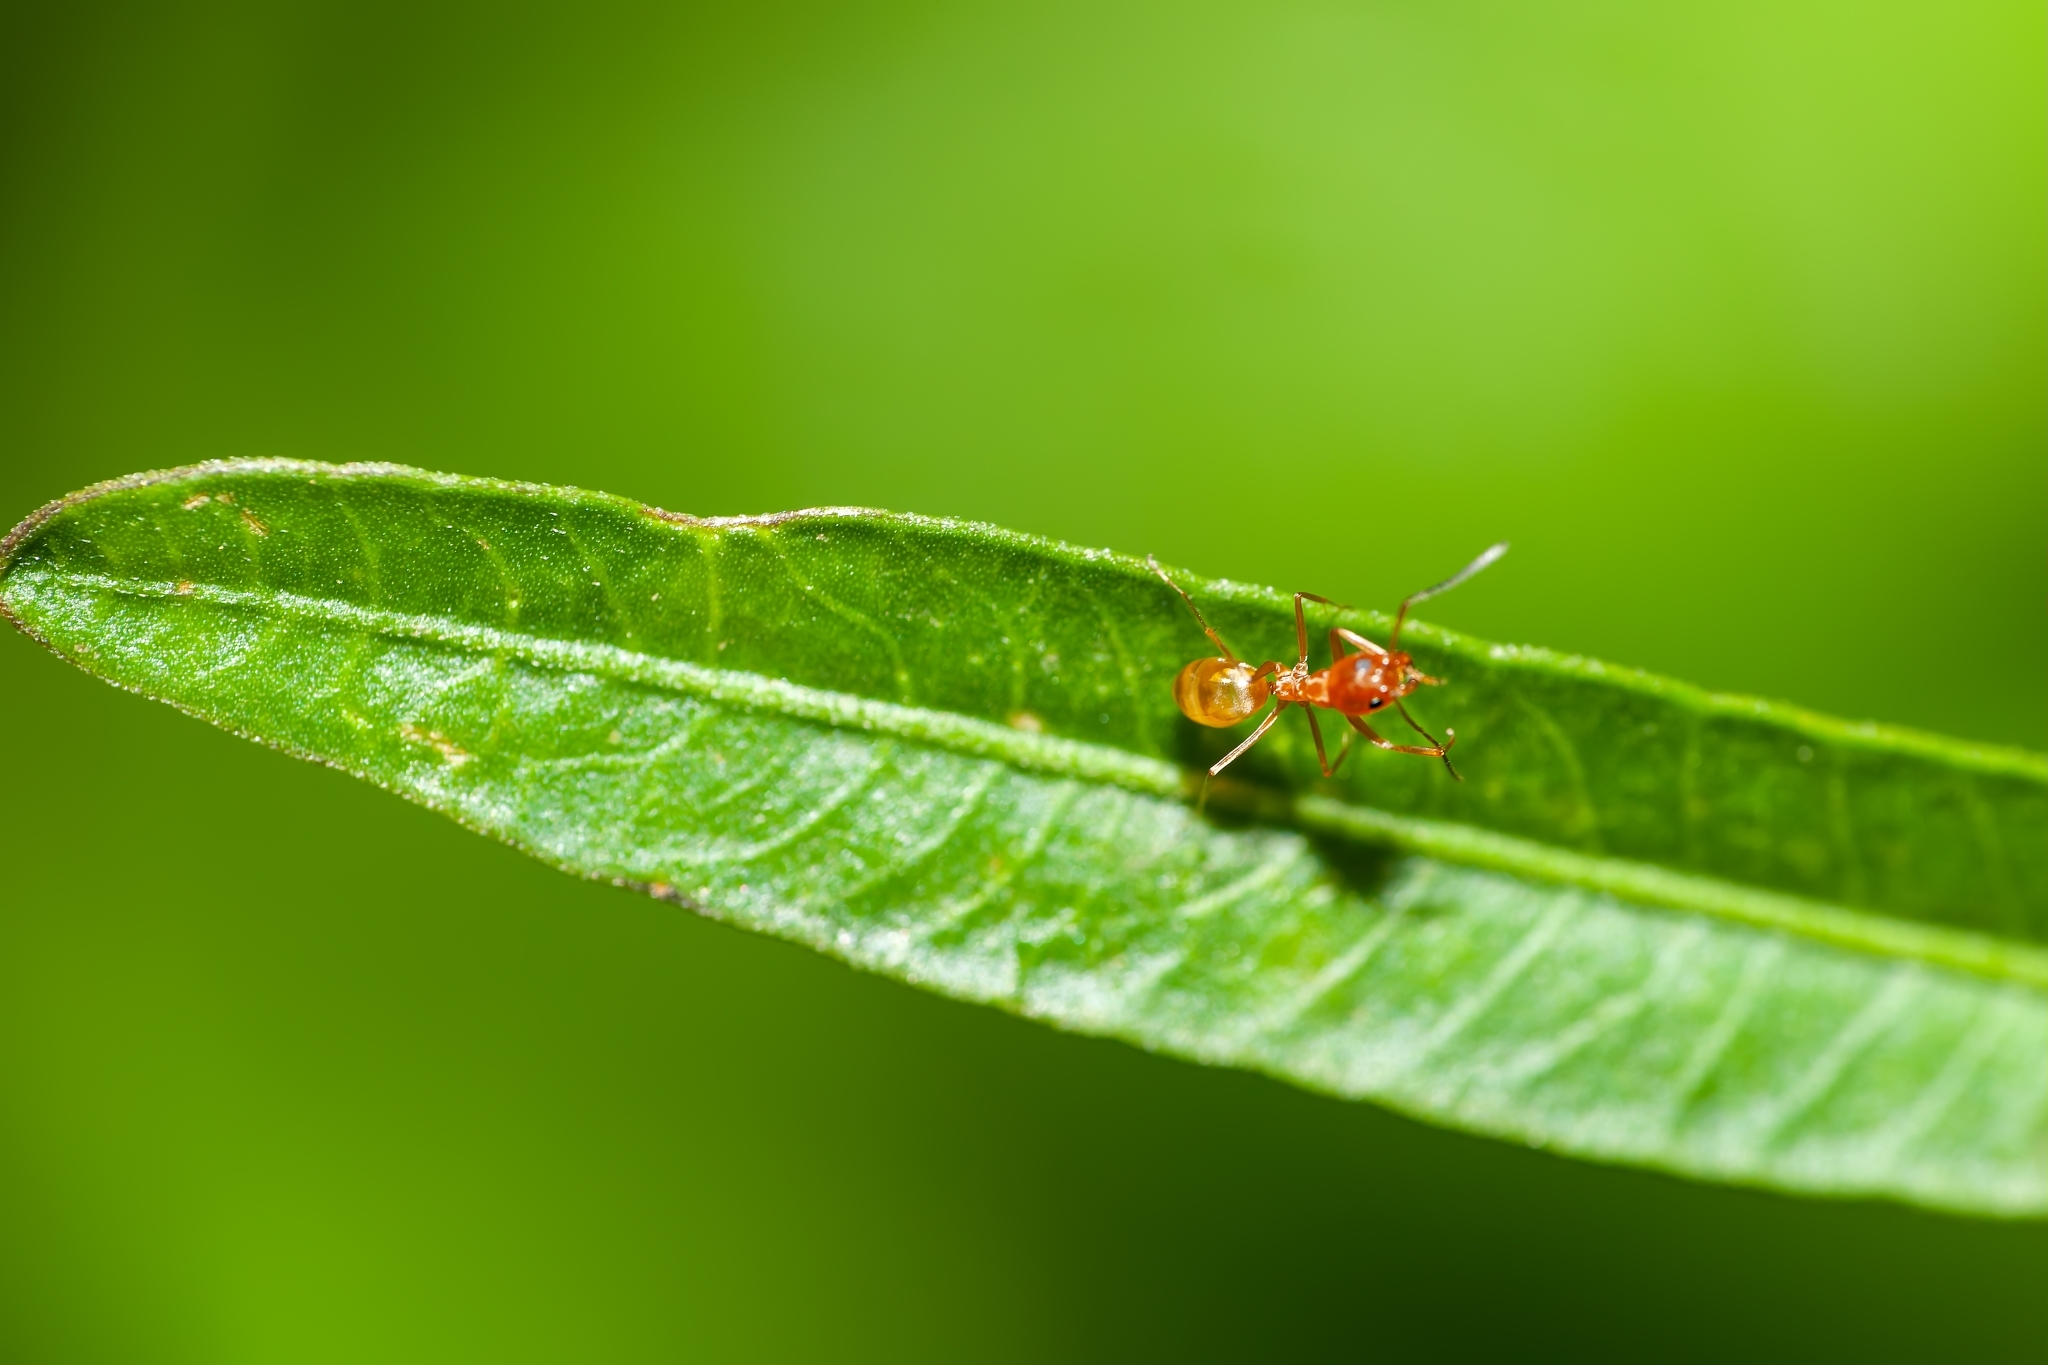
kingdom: Animalia
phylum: Arthropoda
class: Insecta
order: Hymenoptera
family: Formicidae
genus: Dorymyrmex
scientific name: Dorymyrmex bureni
